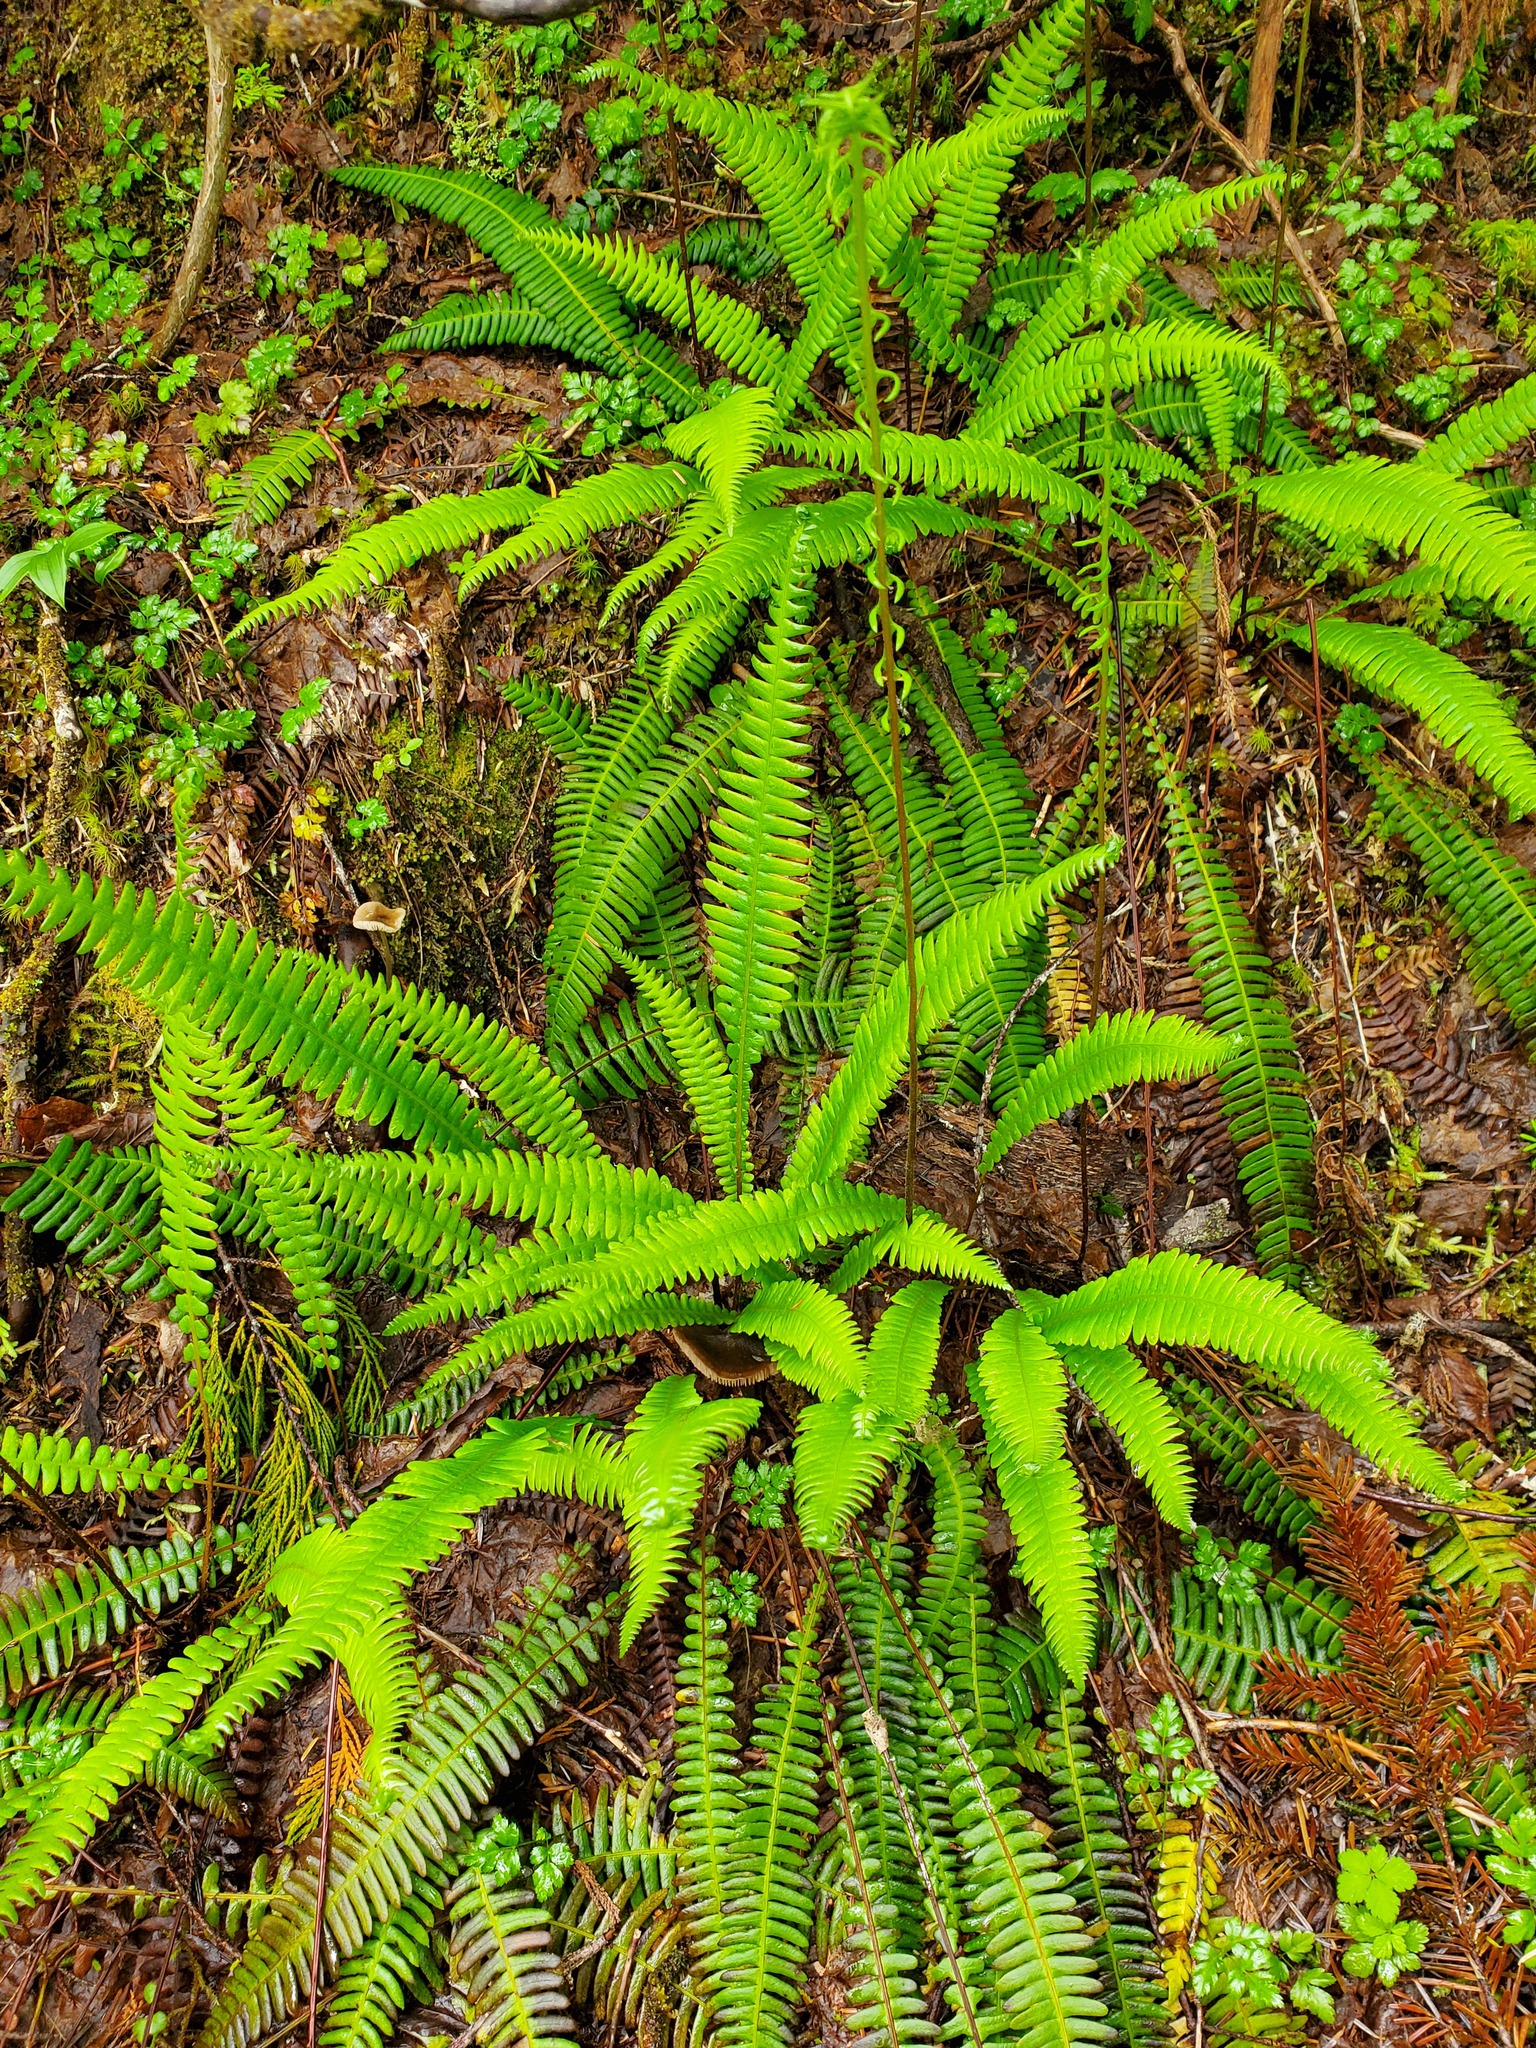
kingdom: Plantae
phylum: Tracheophyta
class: Polypodiopsida
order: Polypodiales
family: Blechnaceae
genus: Struthiopteris
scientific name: Struthiopteris spicant
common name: Deer fern
